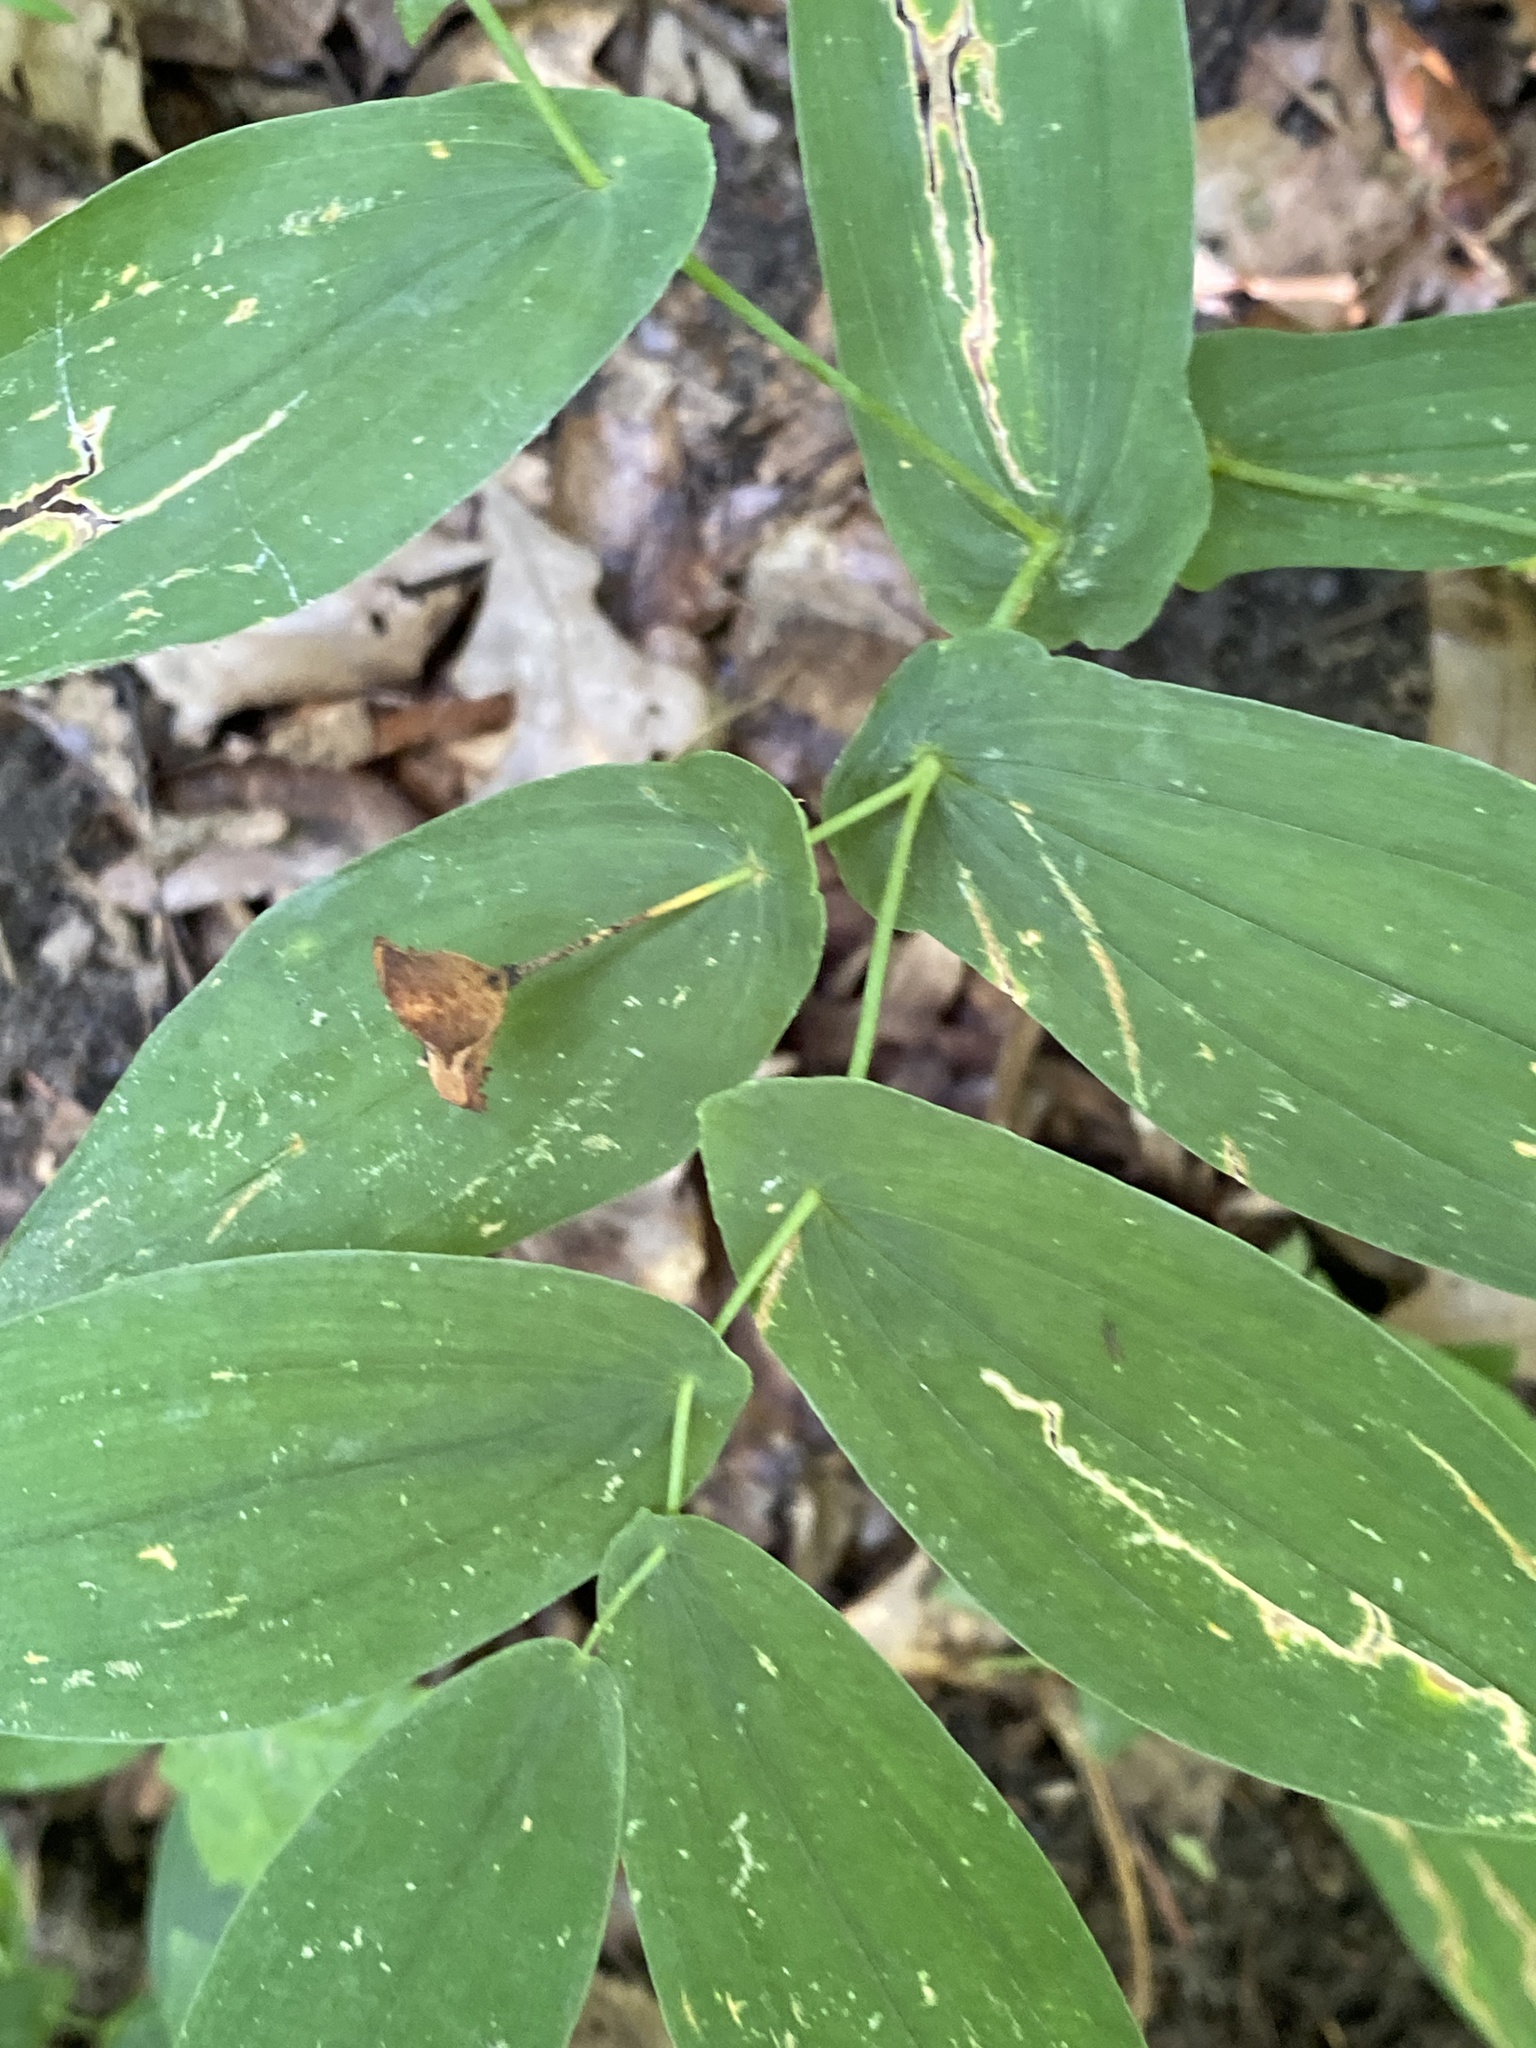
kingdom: Plantae
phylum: Tracheophyta
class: Liliopsida
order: Liliales
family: Colchicaceae
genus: Uvularia
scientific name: Uvularia grandiflora
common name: Bellwort
